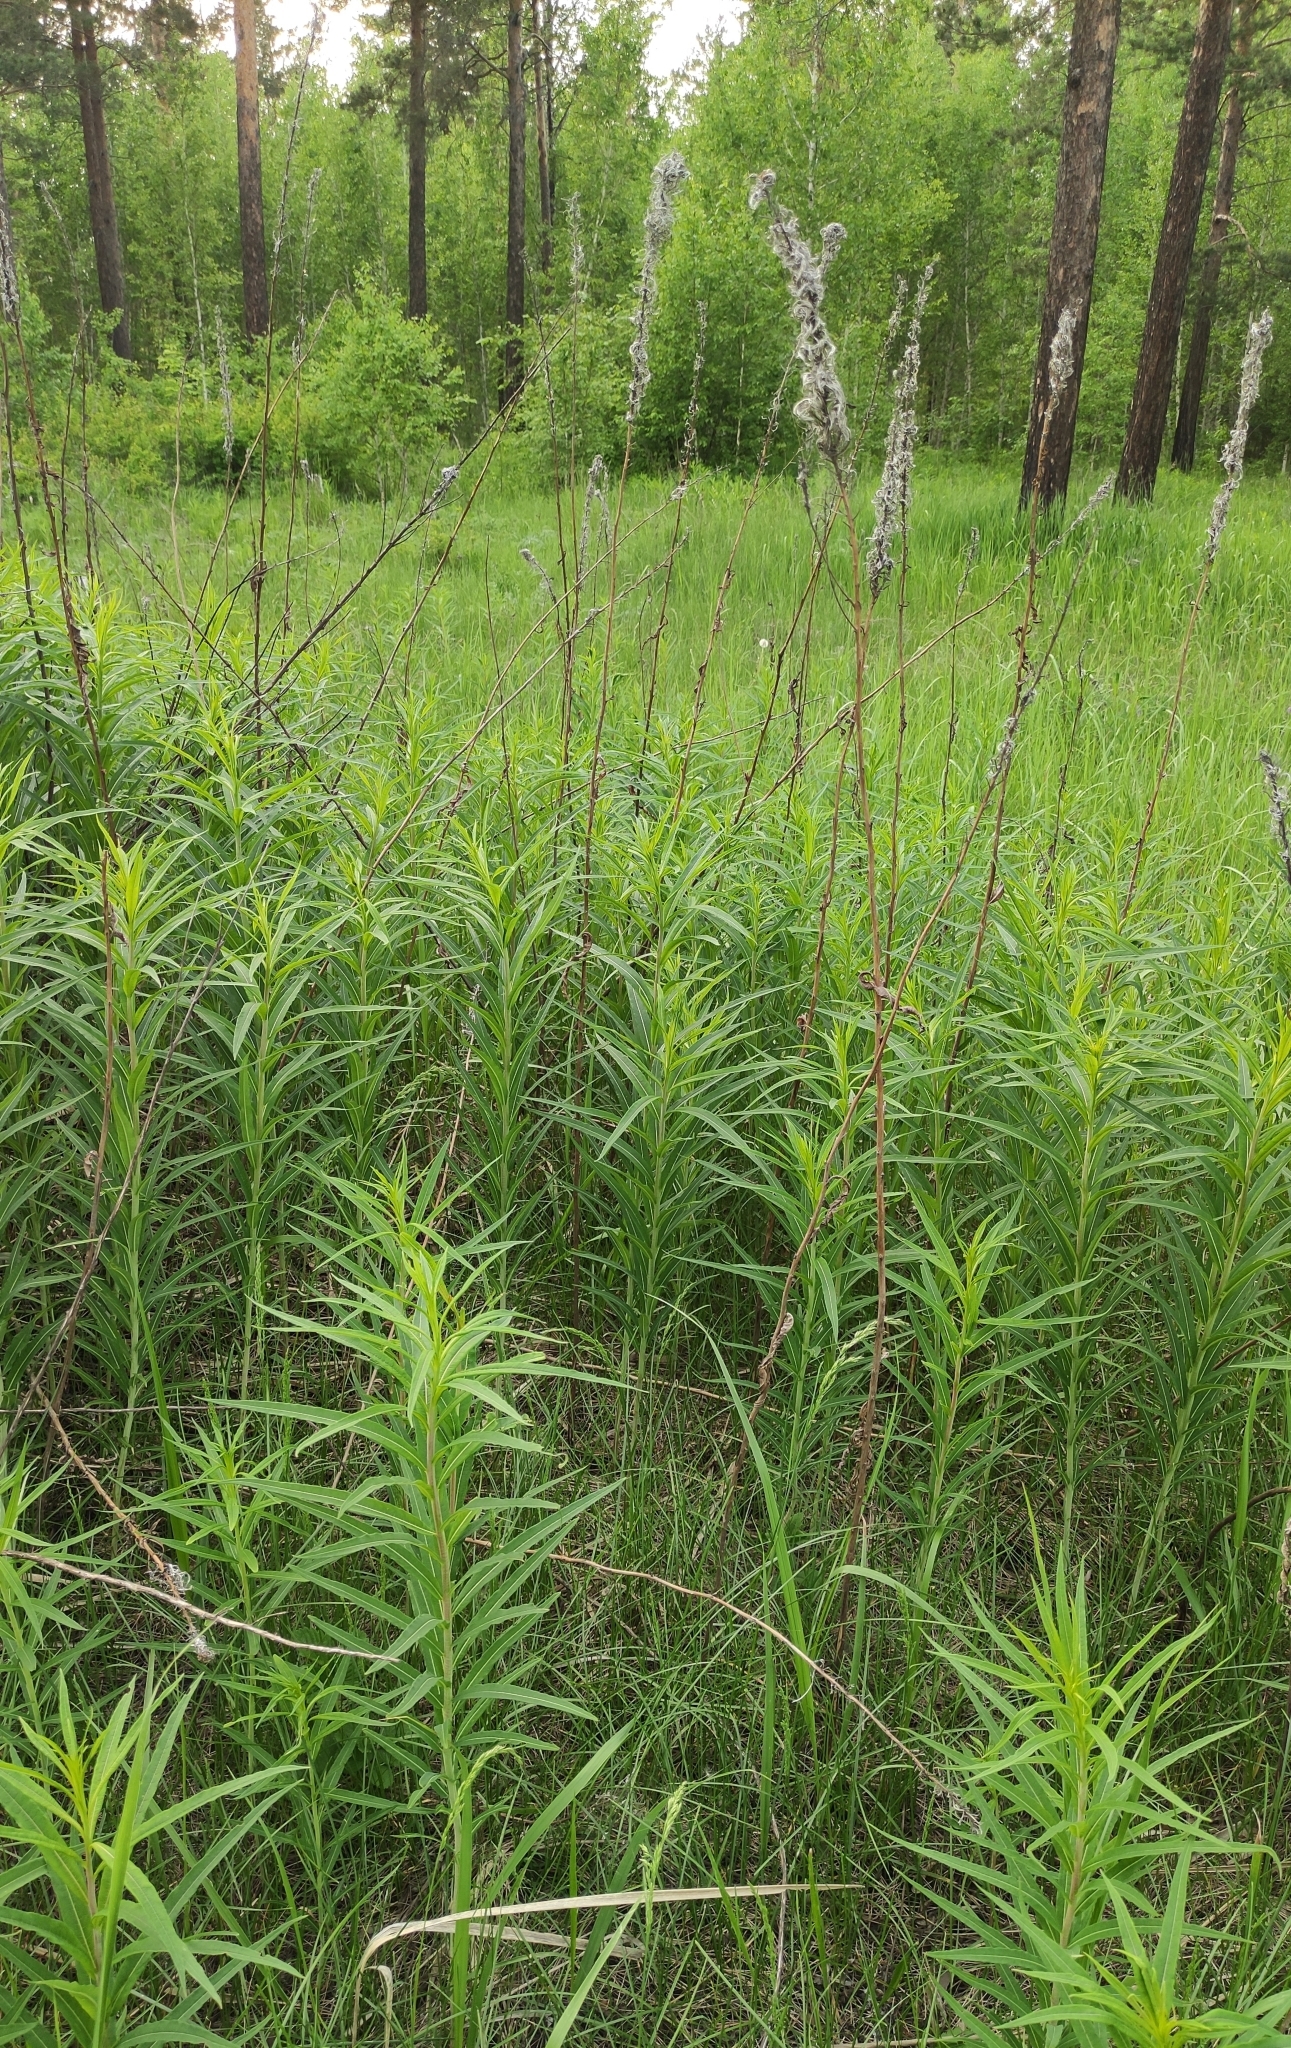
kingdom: Plantae
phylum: Tracheophyta
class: Magnoliopsida
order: Myrtales
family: Onagraceae
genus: Chamaenerion
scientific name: Chamaenerion angustifolium
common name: Fireweed
